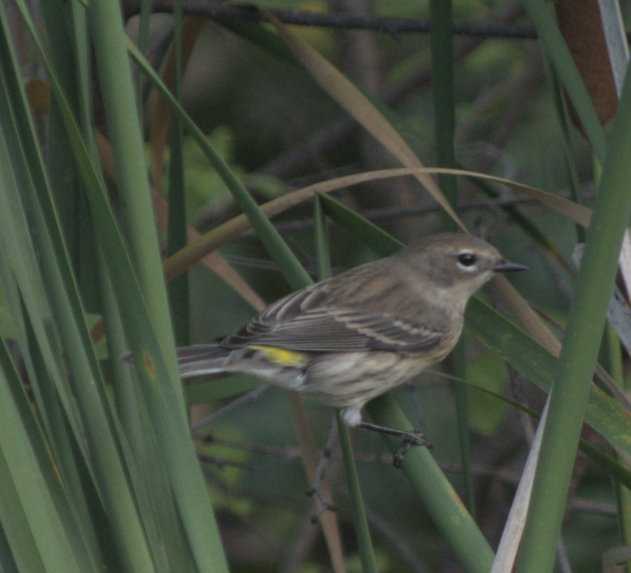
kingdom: Animalia
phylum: Chordata
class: Aves
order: Passeriformes
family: Parulidae
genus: Setophaga
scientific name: Setophaga coronata
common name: Myrtle warbler
